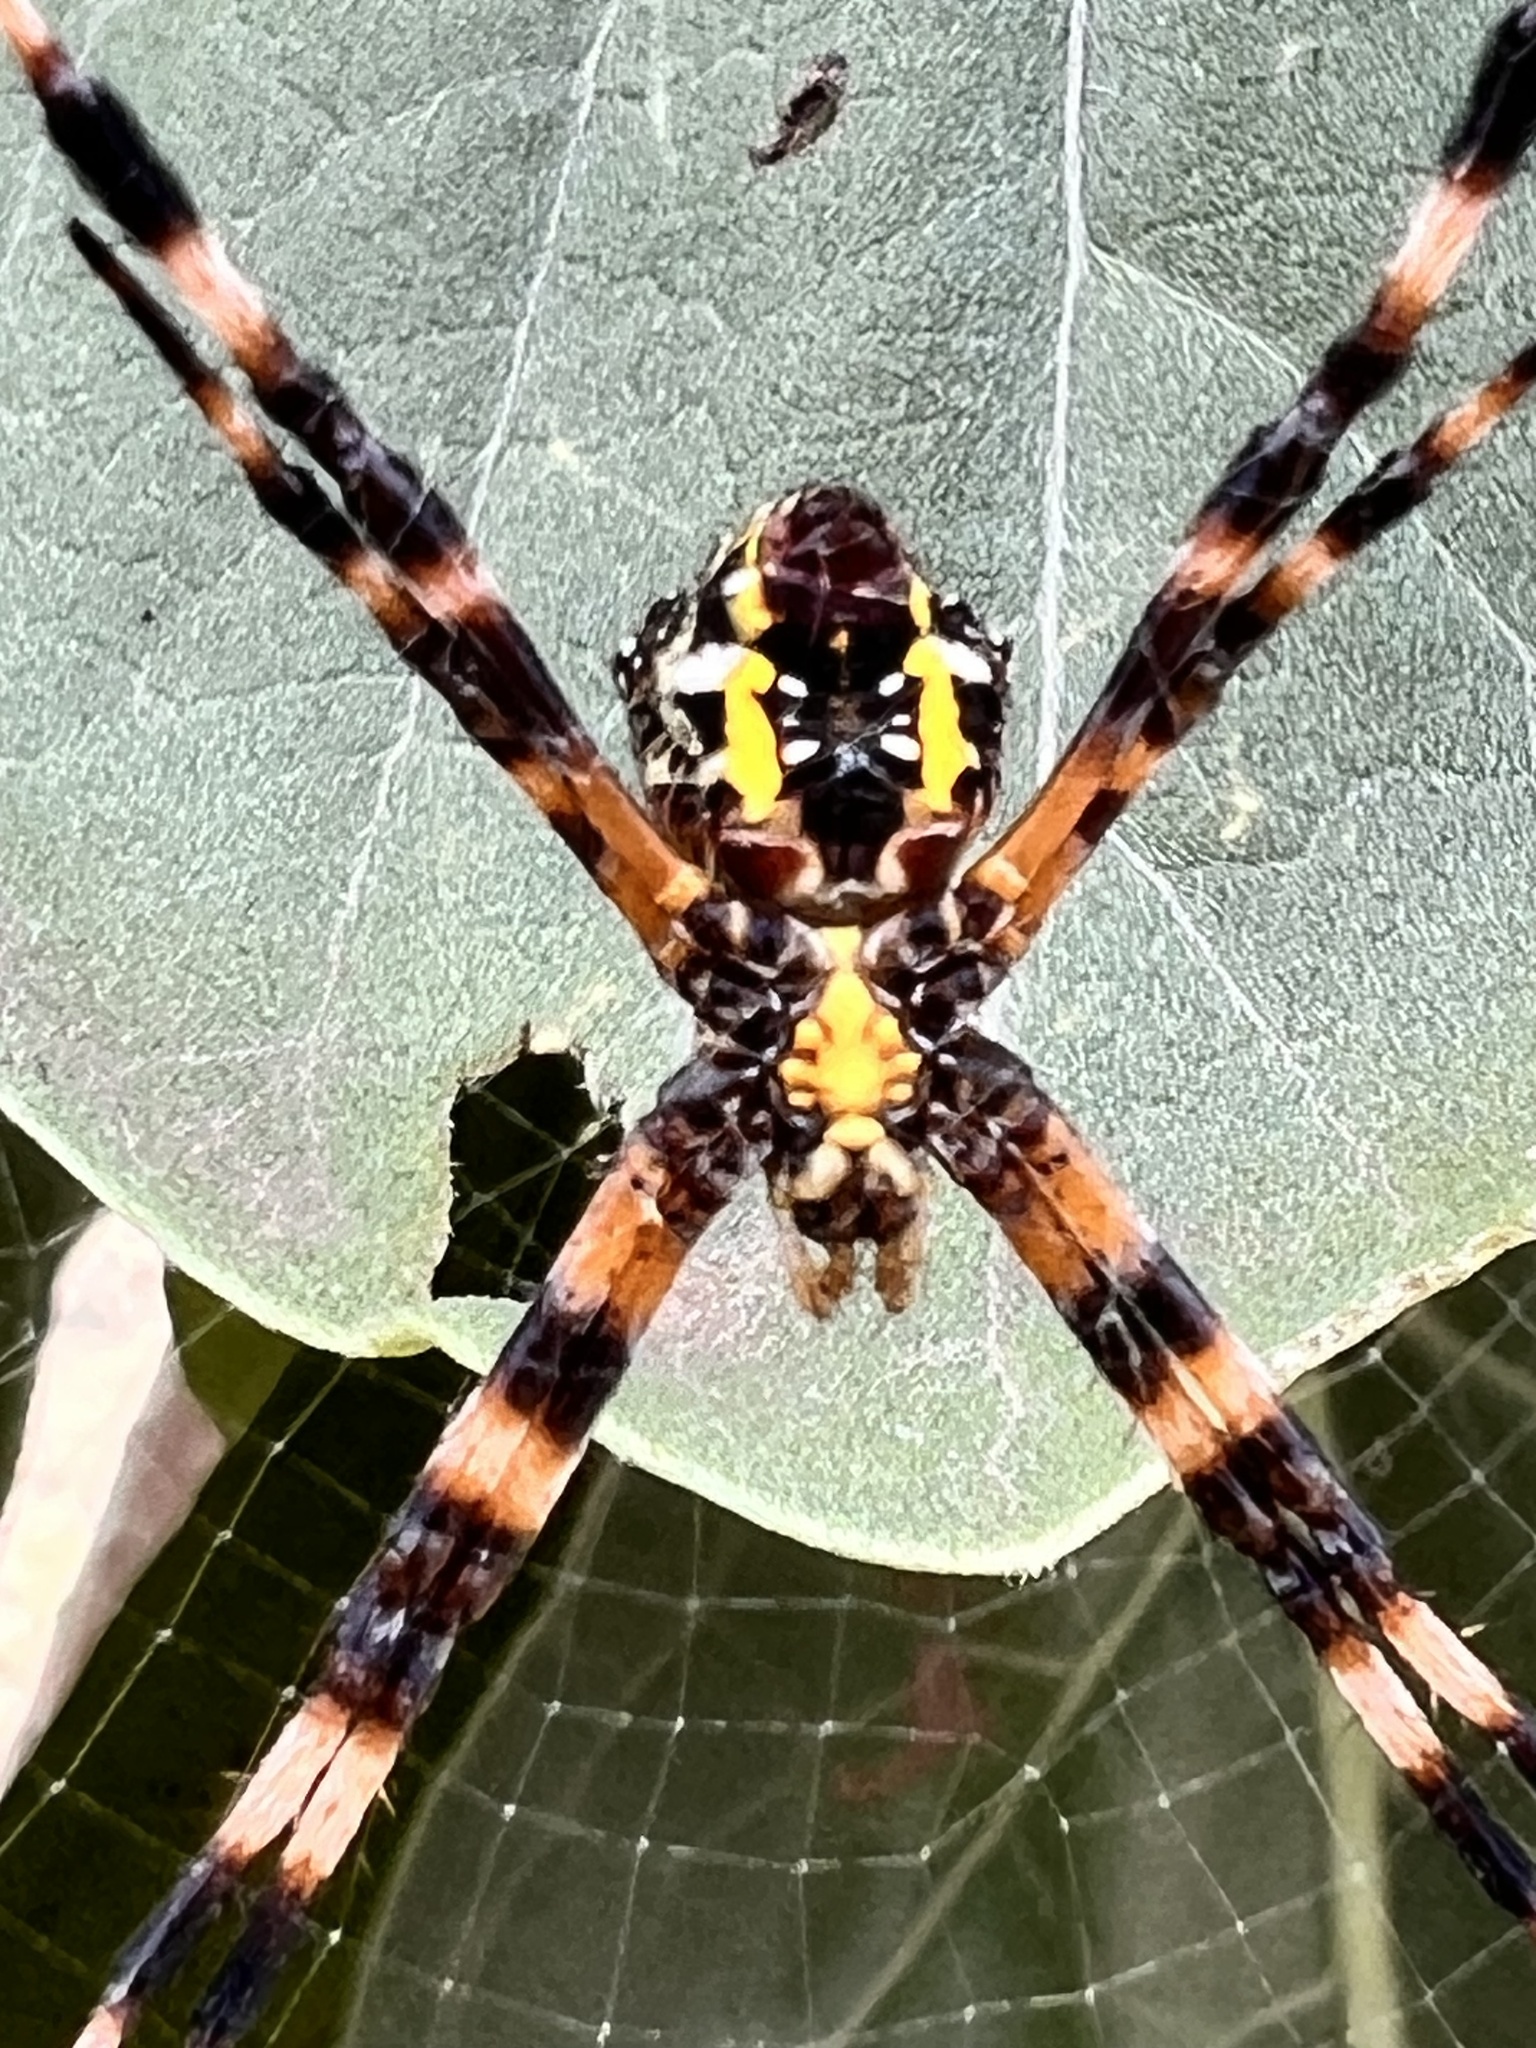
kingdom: Animalia
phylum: Arthropoda
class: Arachnida
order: Araneae
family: Araneidae
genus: Argiope
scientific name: Argiope appensa
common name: Garden spider
